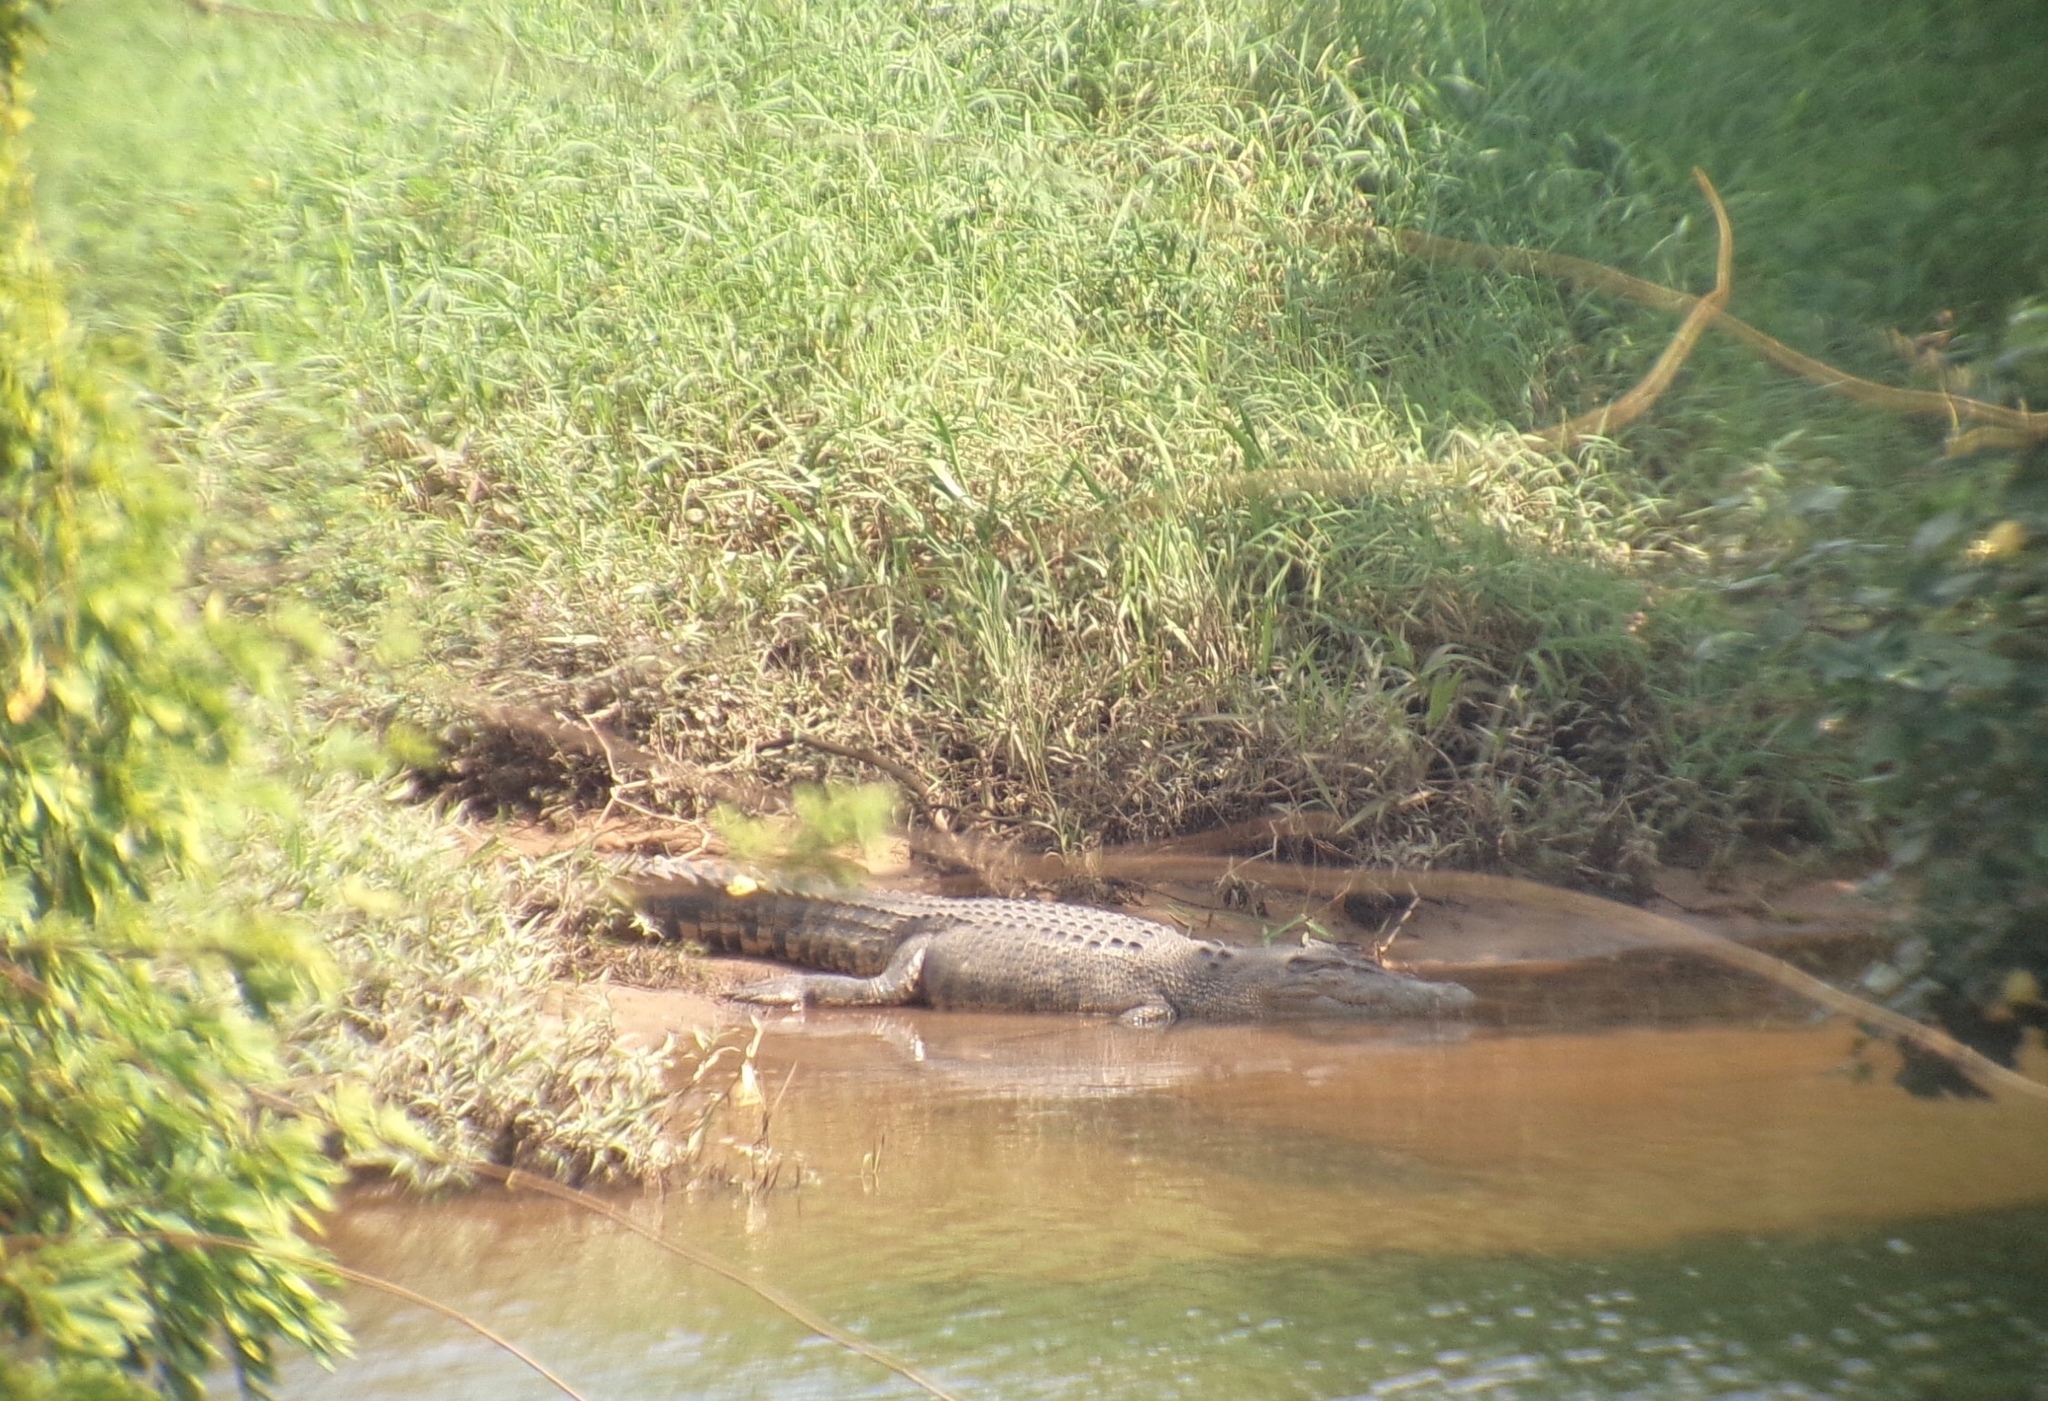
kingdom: Animalia
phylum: Chordata
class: Crocodylia
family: Crocodylidae
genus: Crocodylus
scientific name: Crocodylus porosus
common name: Saltwater crocodile
